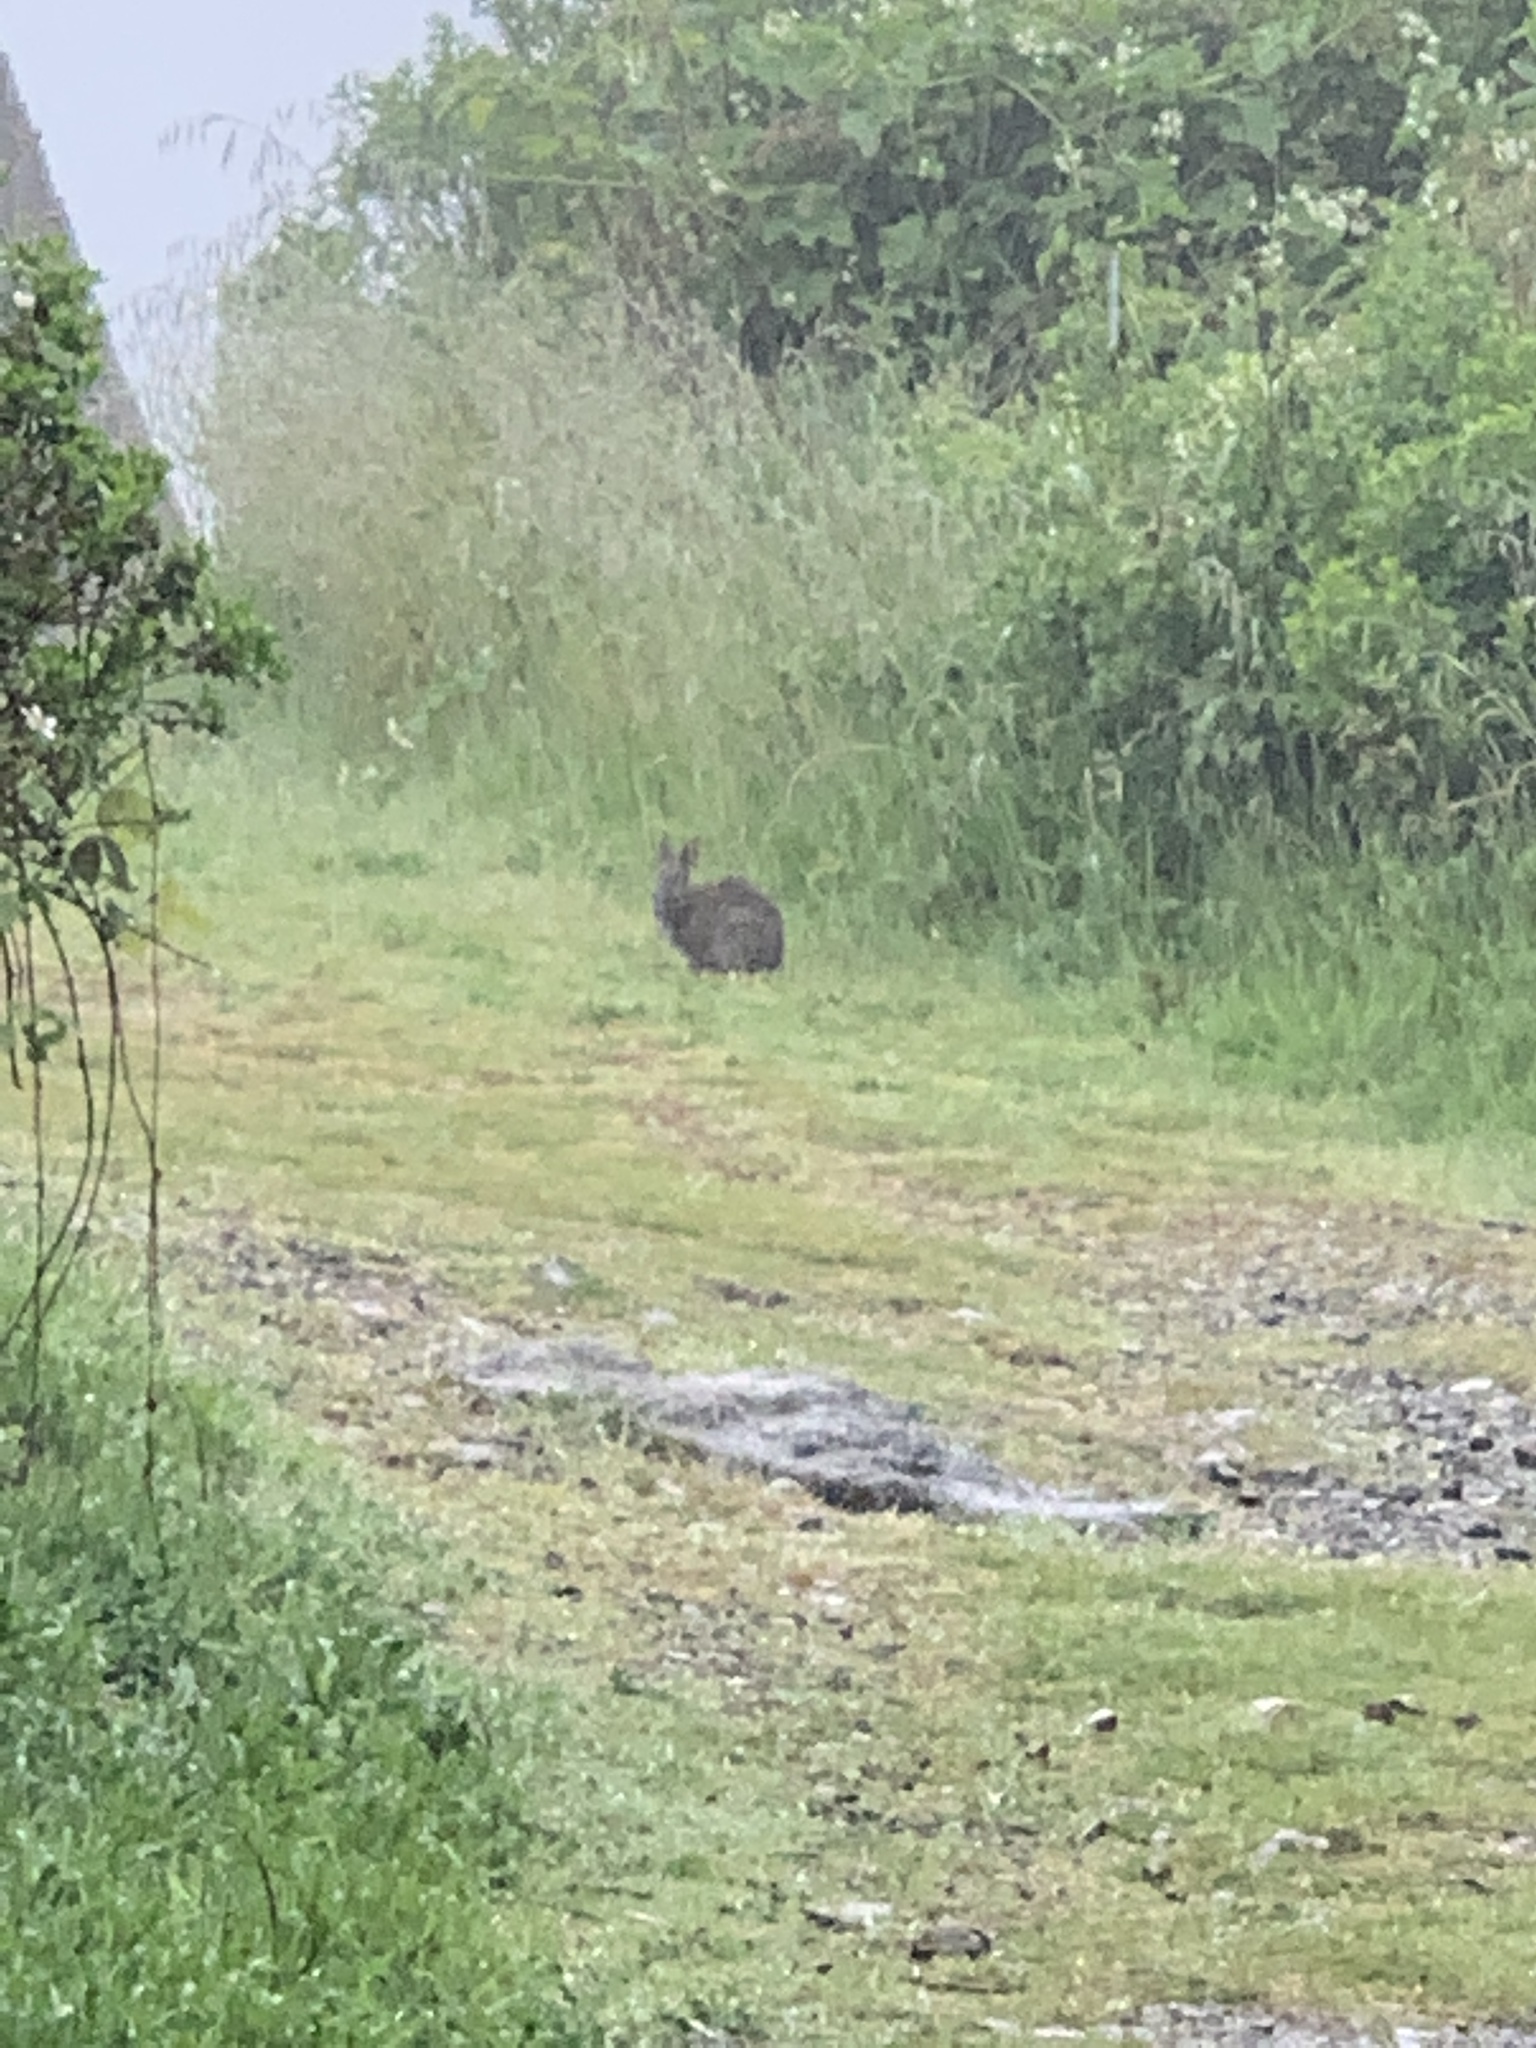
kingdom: Animalia
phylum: Chordata
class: Mammalia
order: Lagomorpha
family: Leporidae
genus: Sylvilagus
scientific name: Sylvilagus bachmani
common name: Brush rabbit
